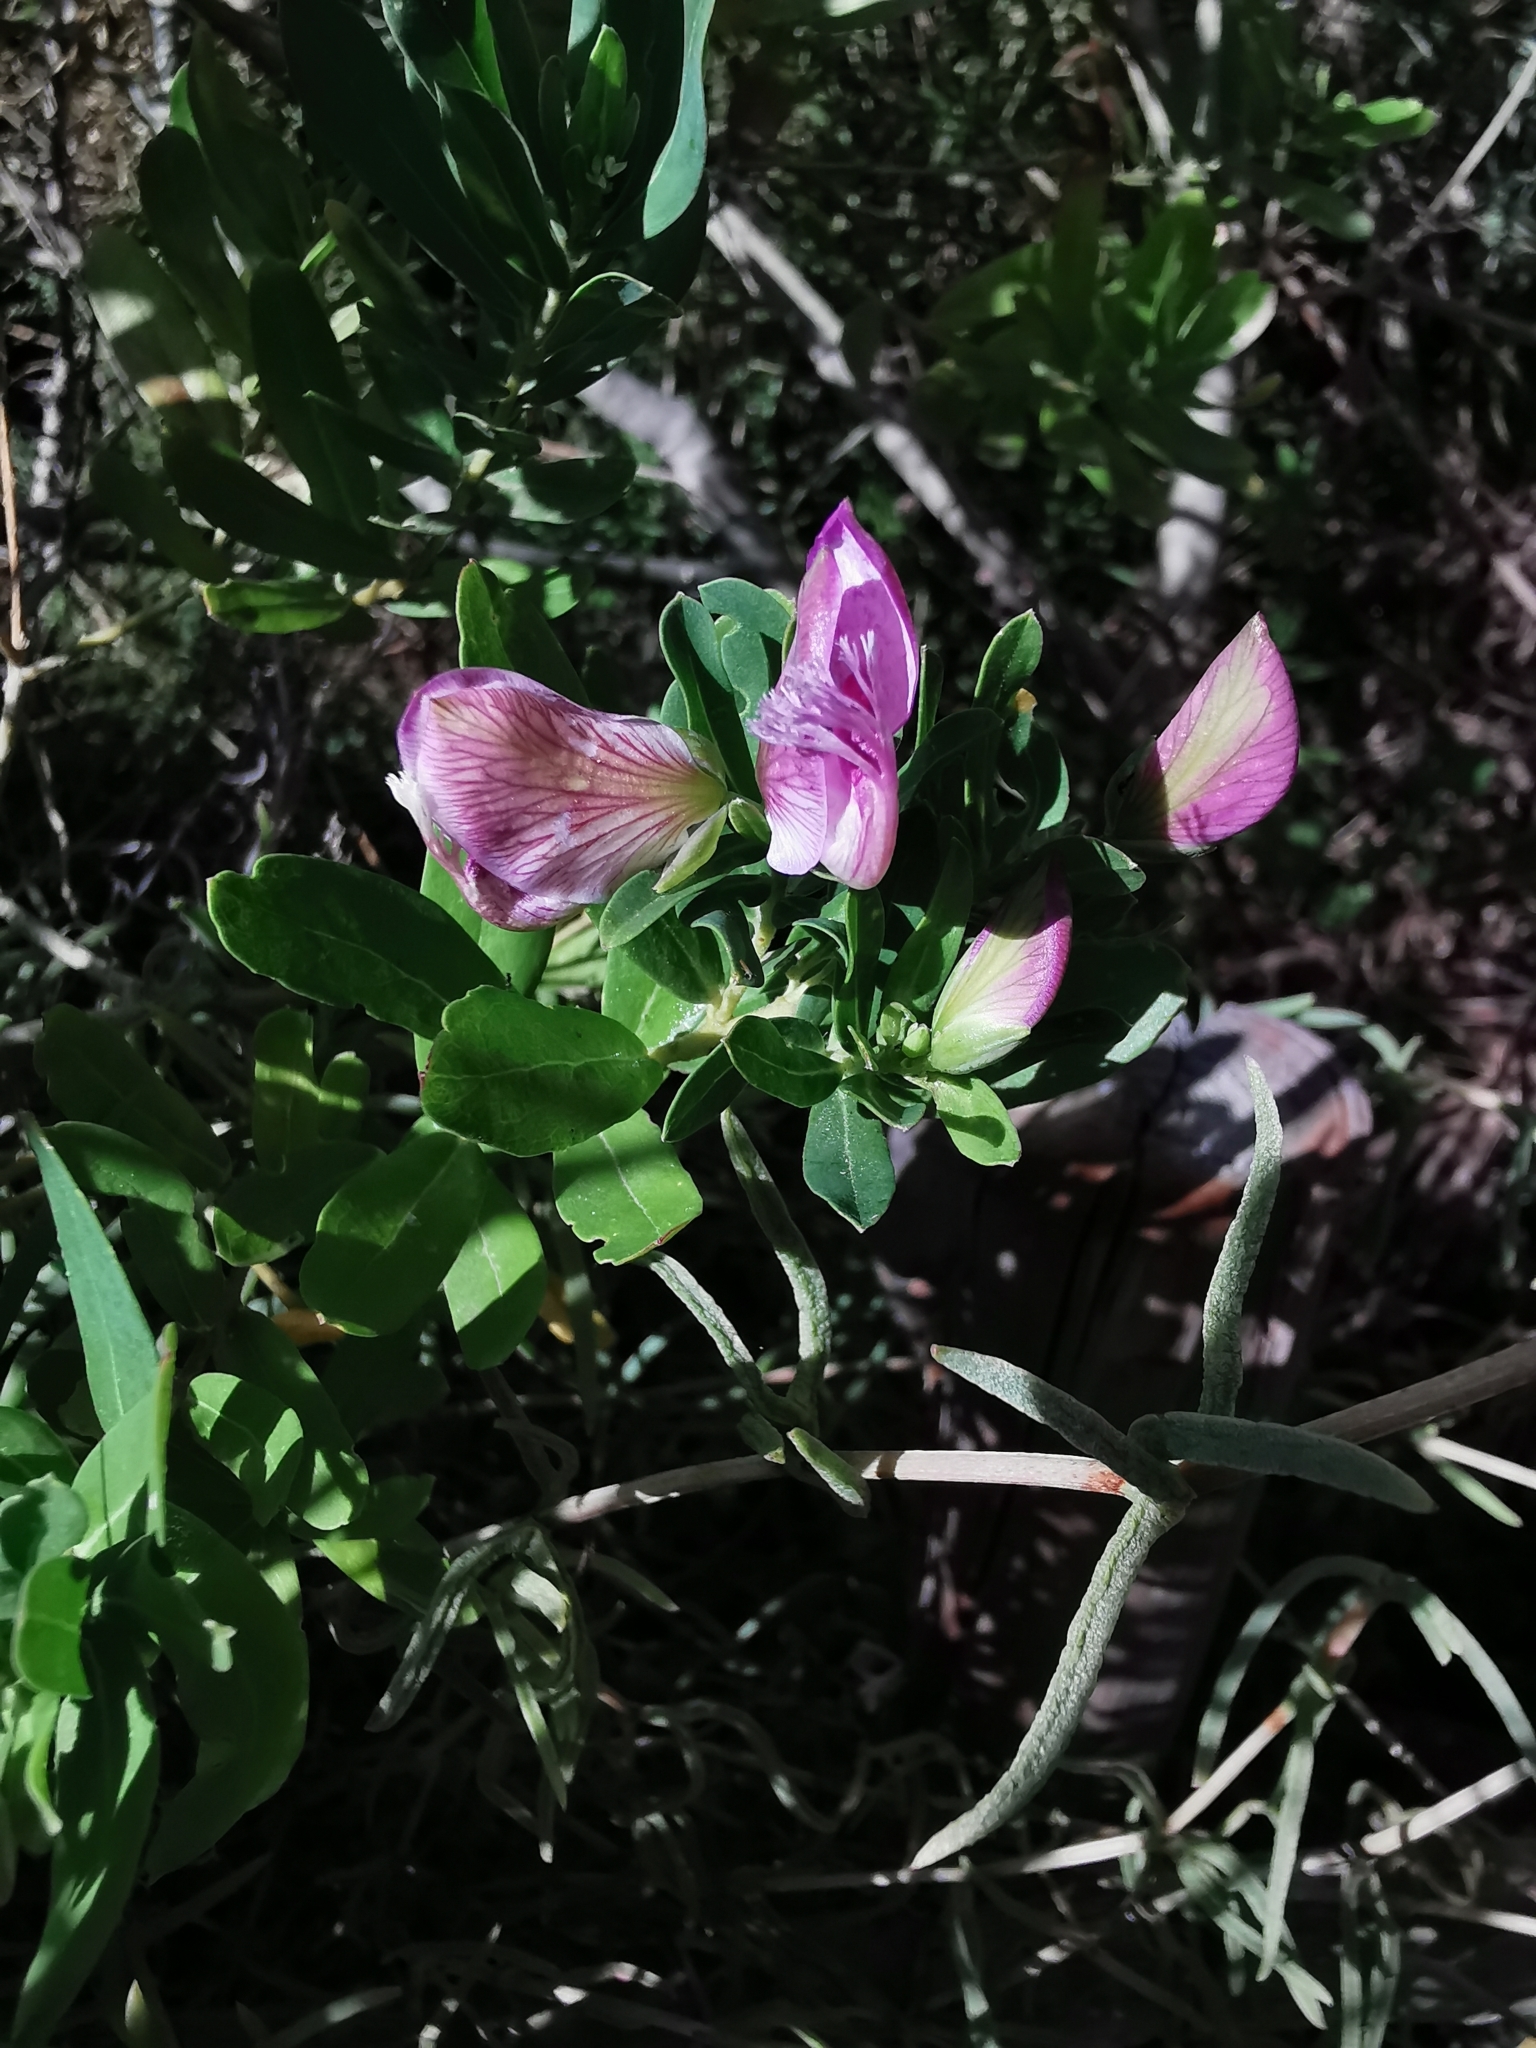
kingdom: Plantae
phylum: Tracheophyta
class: Magnoliopsida
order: Fabales
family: Polygalaceae
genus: Polygala
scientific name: Polygala myrtifolia
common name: Myrtle-leaf milkwort
